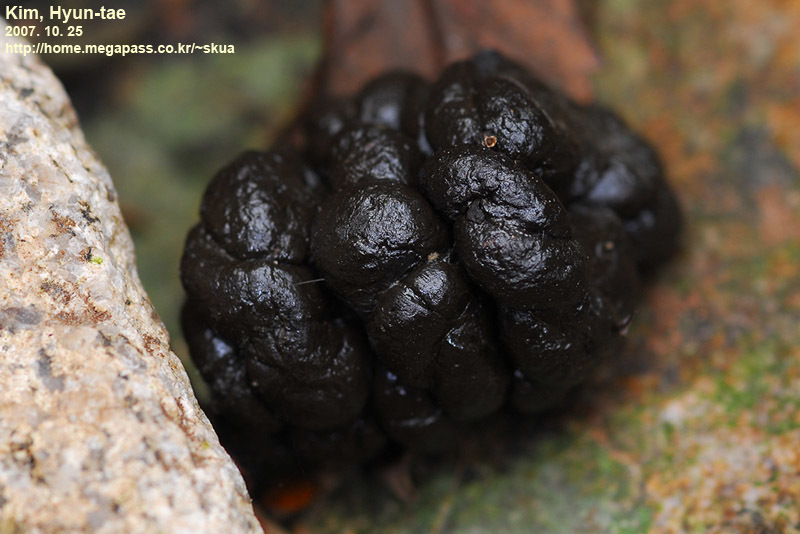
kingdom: Animalia
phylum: Chordata
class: Mammalia
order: Artiodactyla
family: Cervidae
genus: Hydropotes
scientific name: Hydropotes inermis
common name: Chinese water deer
